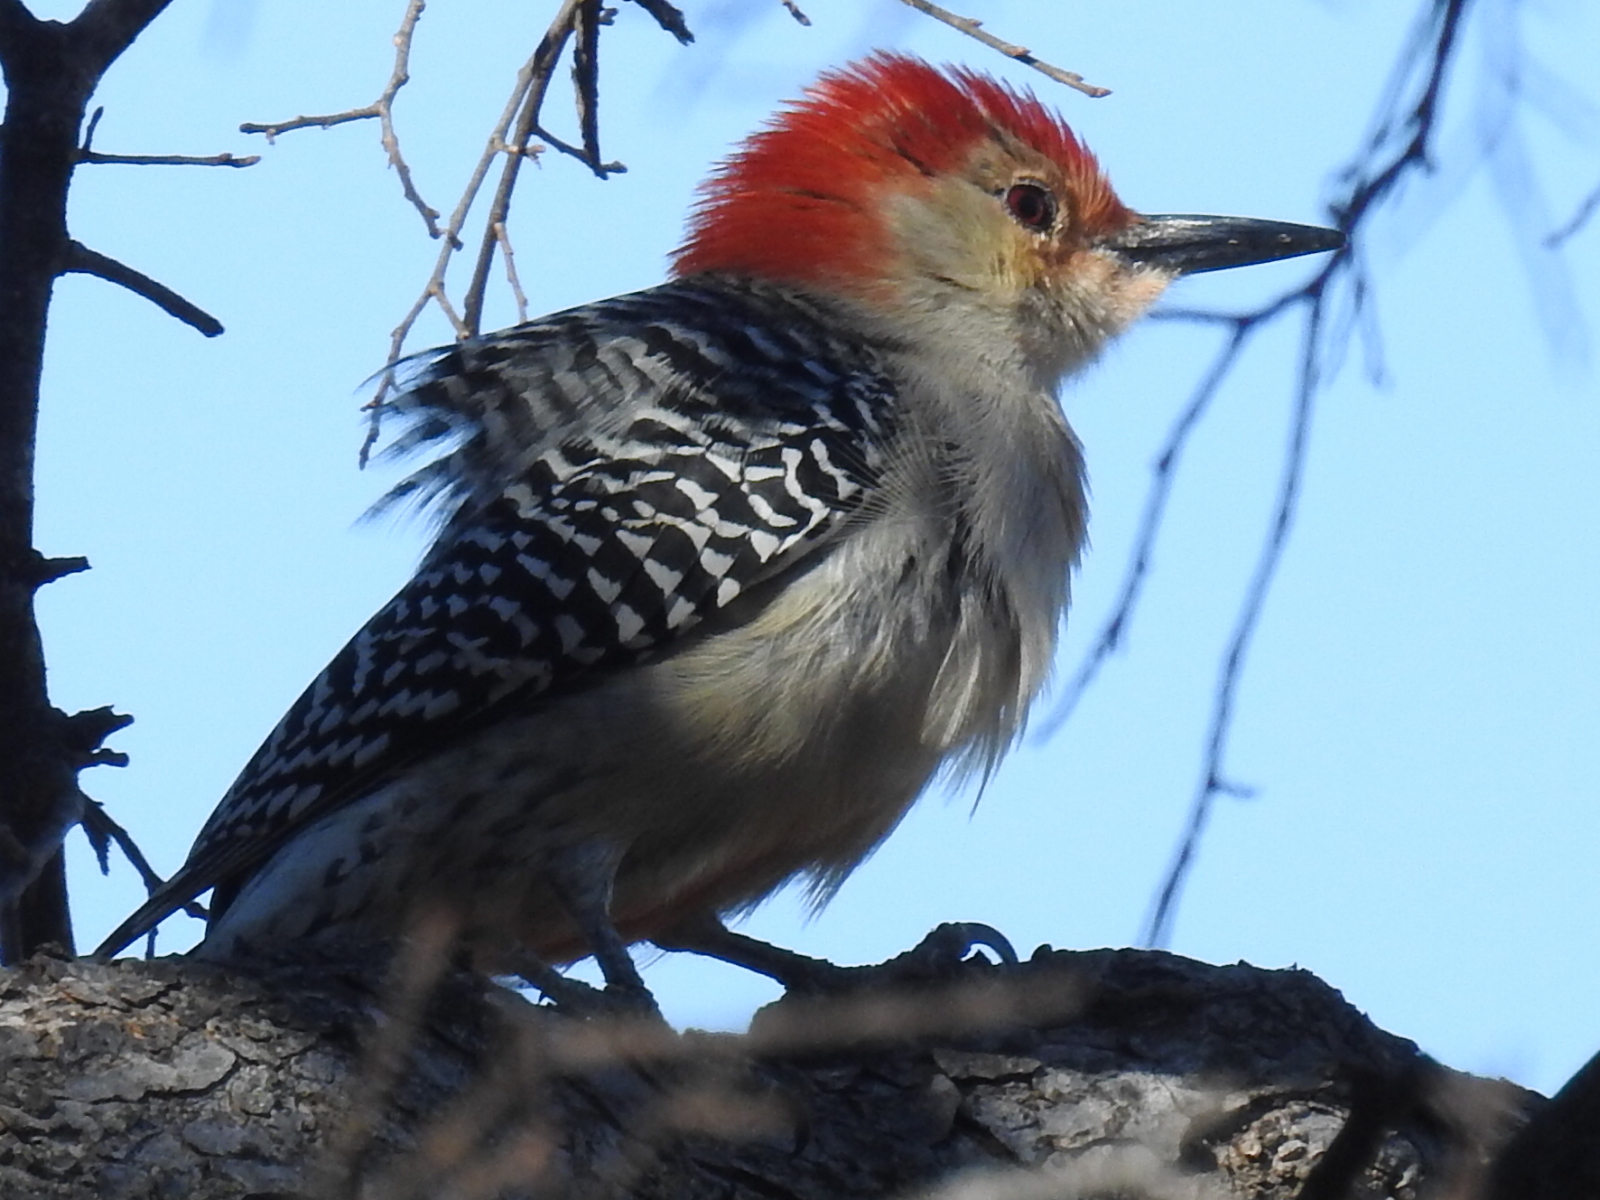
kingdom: Animalia
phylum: Chordata
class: Aves
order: Piciformes
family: Picidae
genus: Melanerpes
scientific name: Melanerpes carolinus
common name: Red-bellied woodpecker
